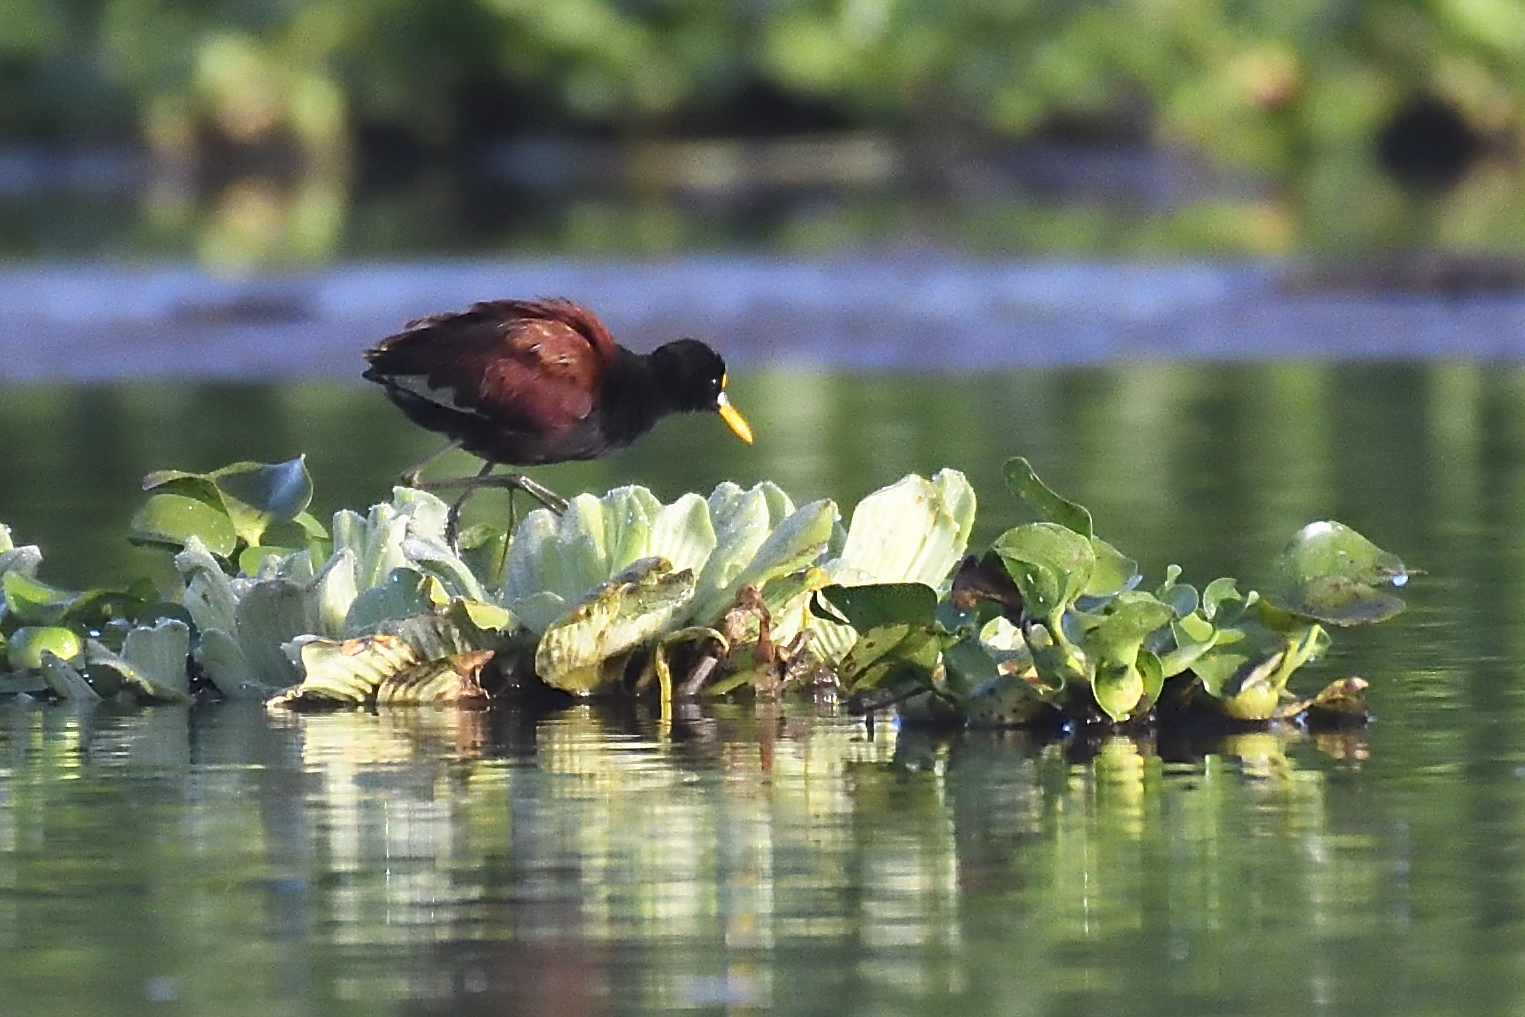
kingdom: Animalia
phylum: Chordata
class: Aves
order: Charadriiformes
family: Jacanidae
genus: Jacana
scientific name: Jacana spinosa
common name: Northern jacana
